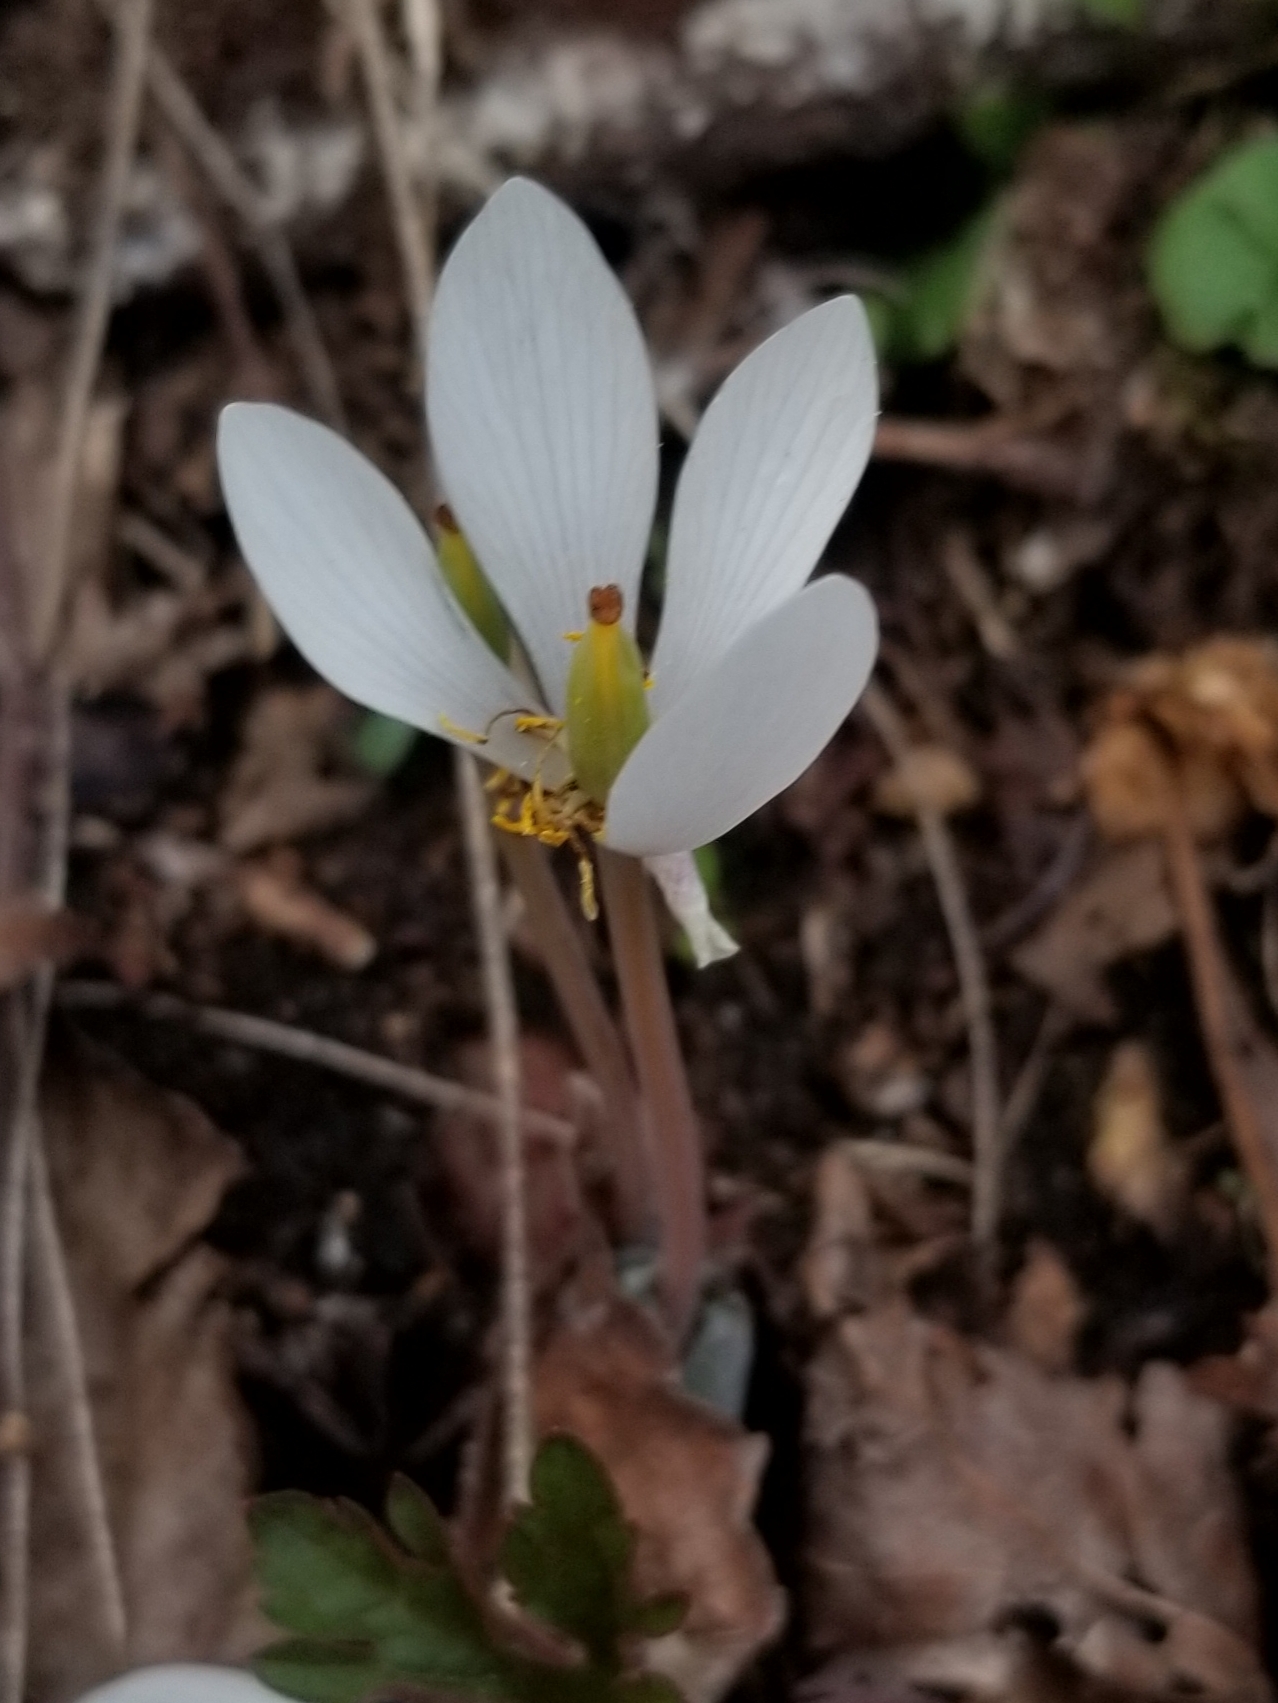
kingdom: Plantae
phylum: Tracheophyta
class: Magnoliopsida
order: Ranunculales
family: Papaveraceae
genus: Sanguinaria
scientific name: Sanguinaria canadensis
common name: Bloodroot
